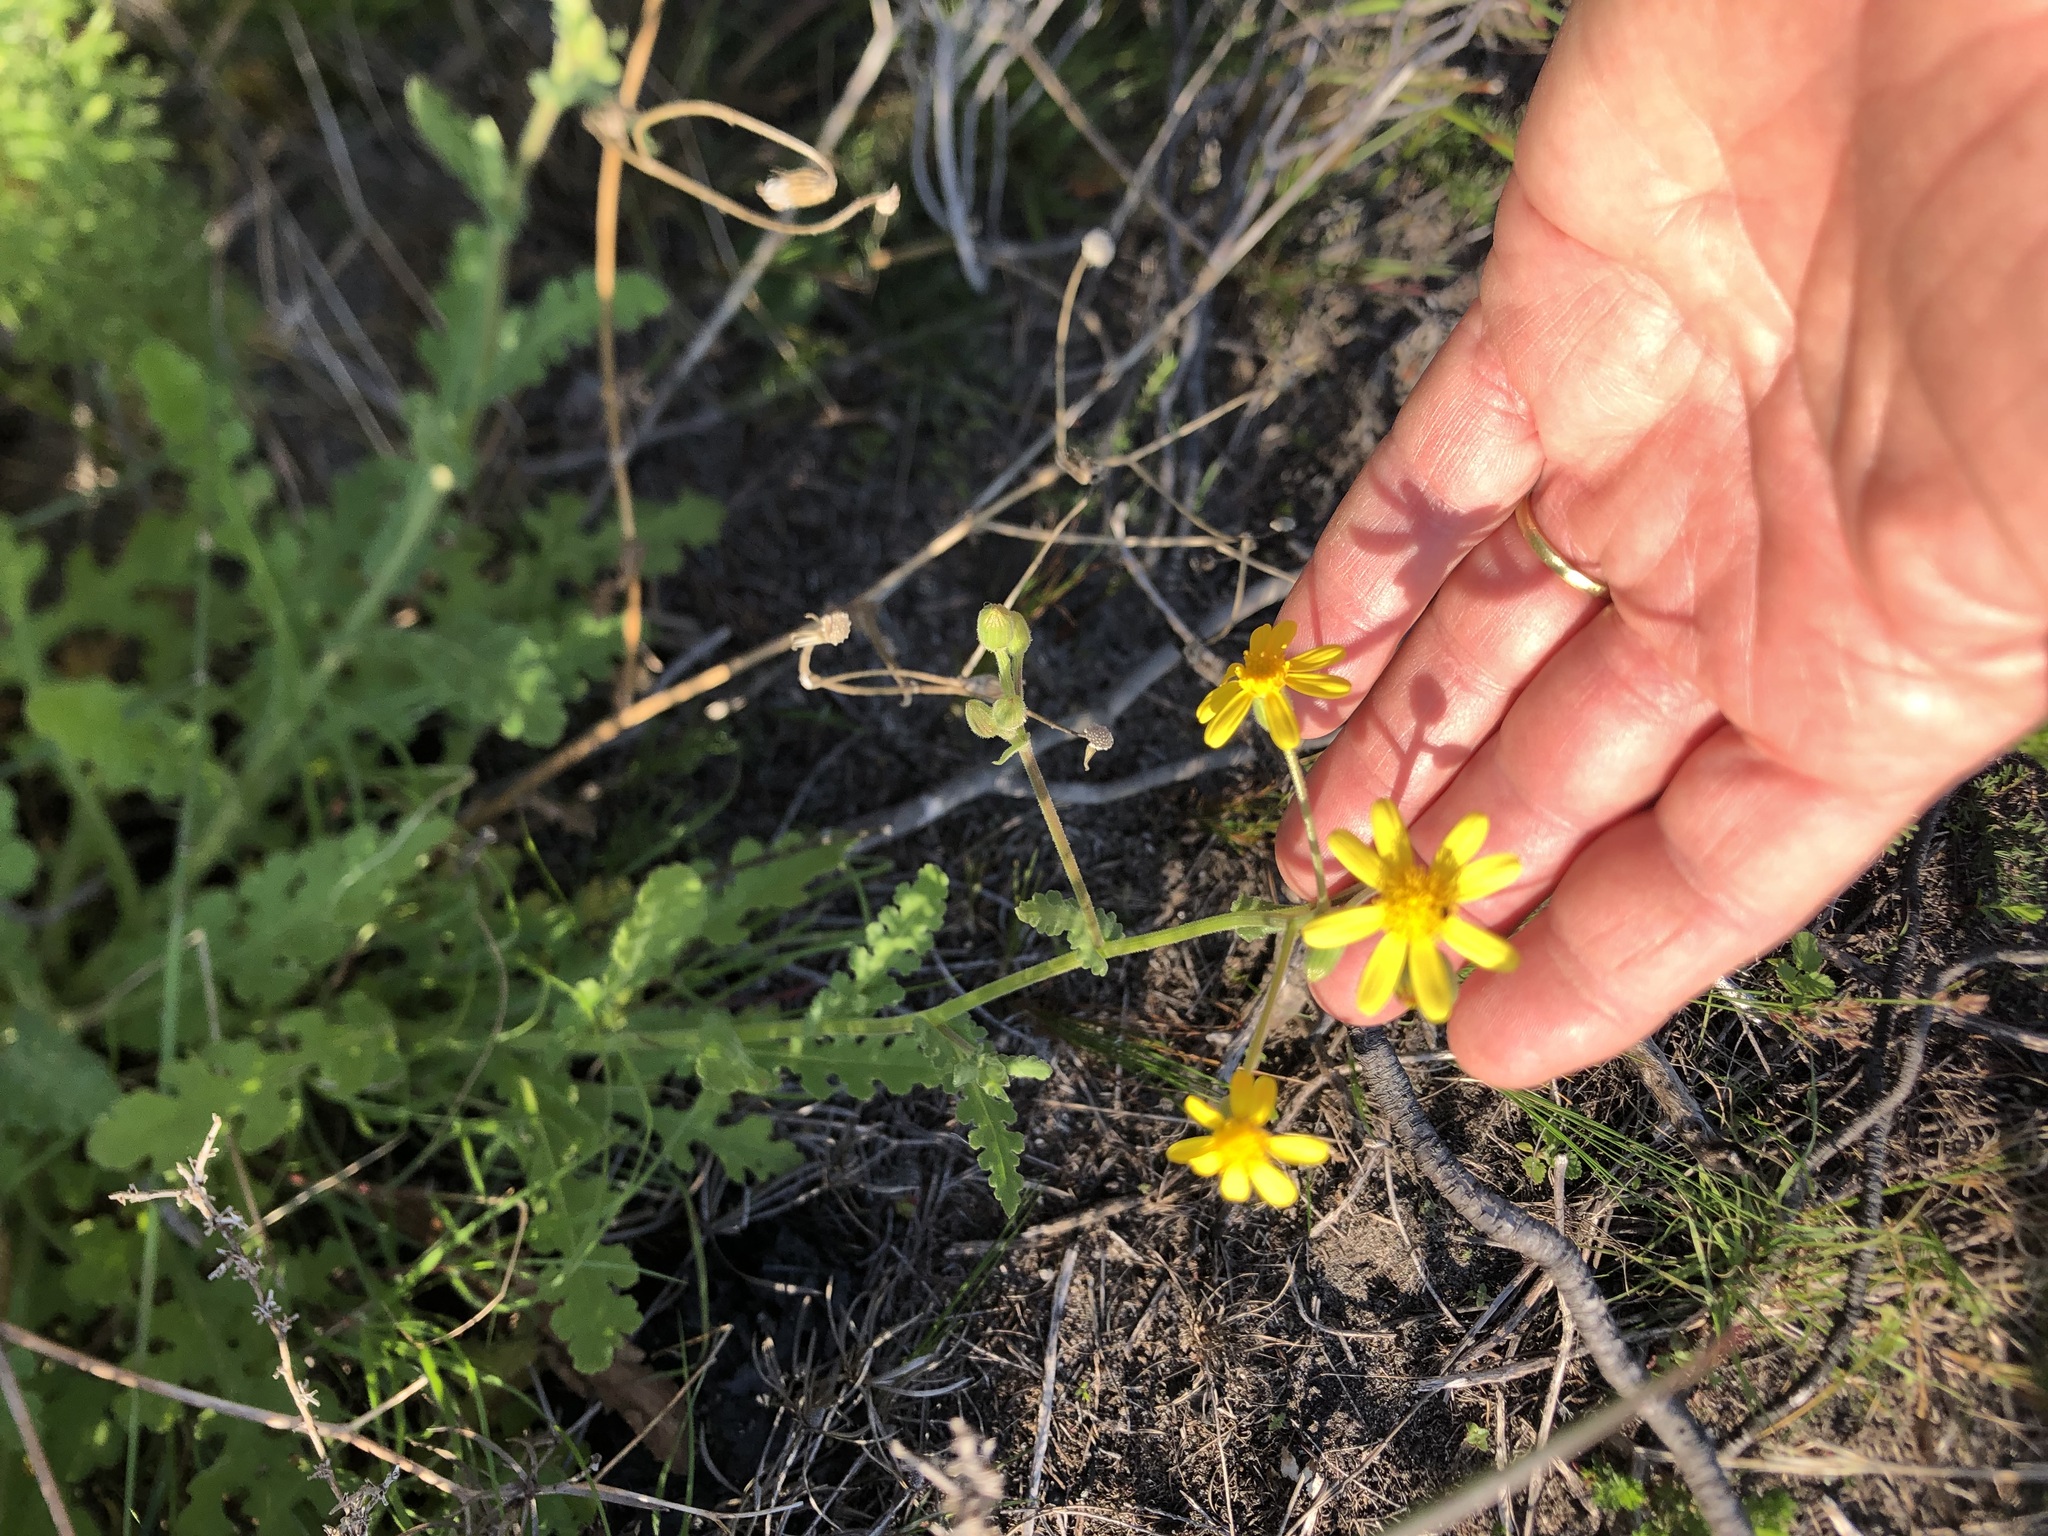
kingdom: Plantae
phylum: Tracheophyta
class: Magnoliopsida
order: Asterales
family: Asteraceae
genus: Senecio
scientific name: Senecio hastatus
